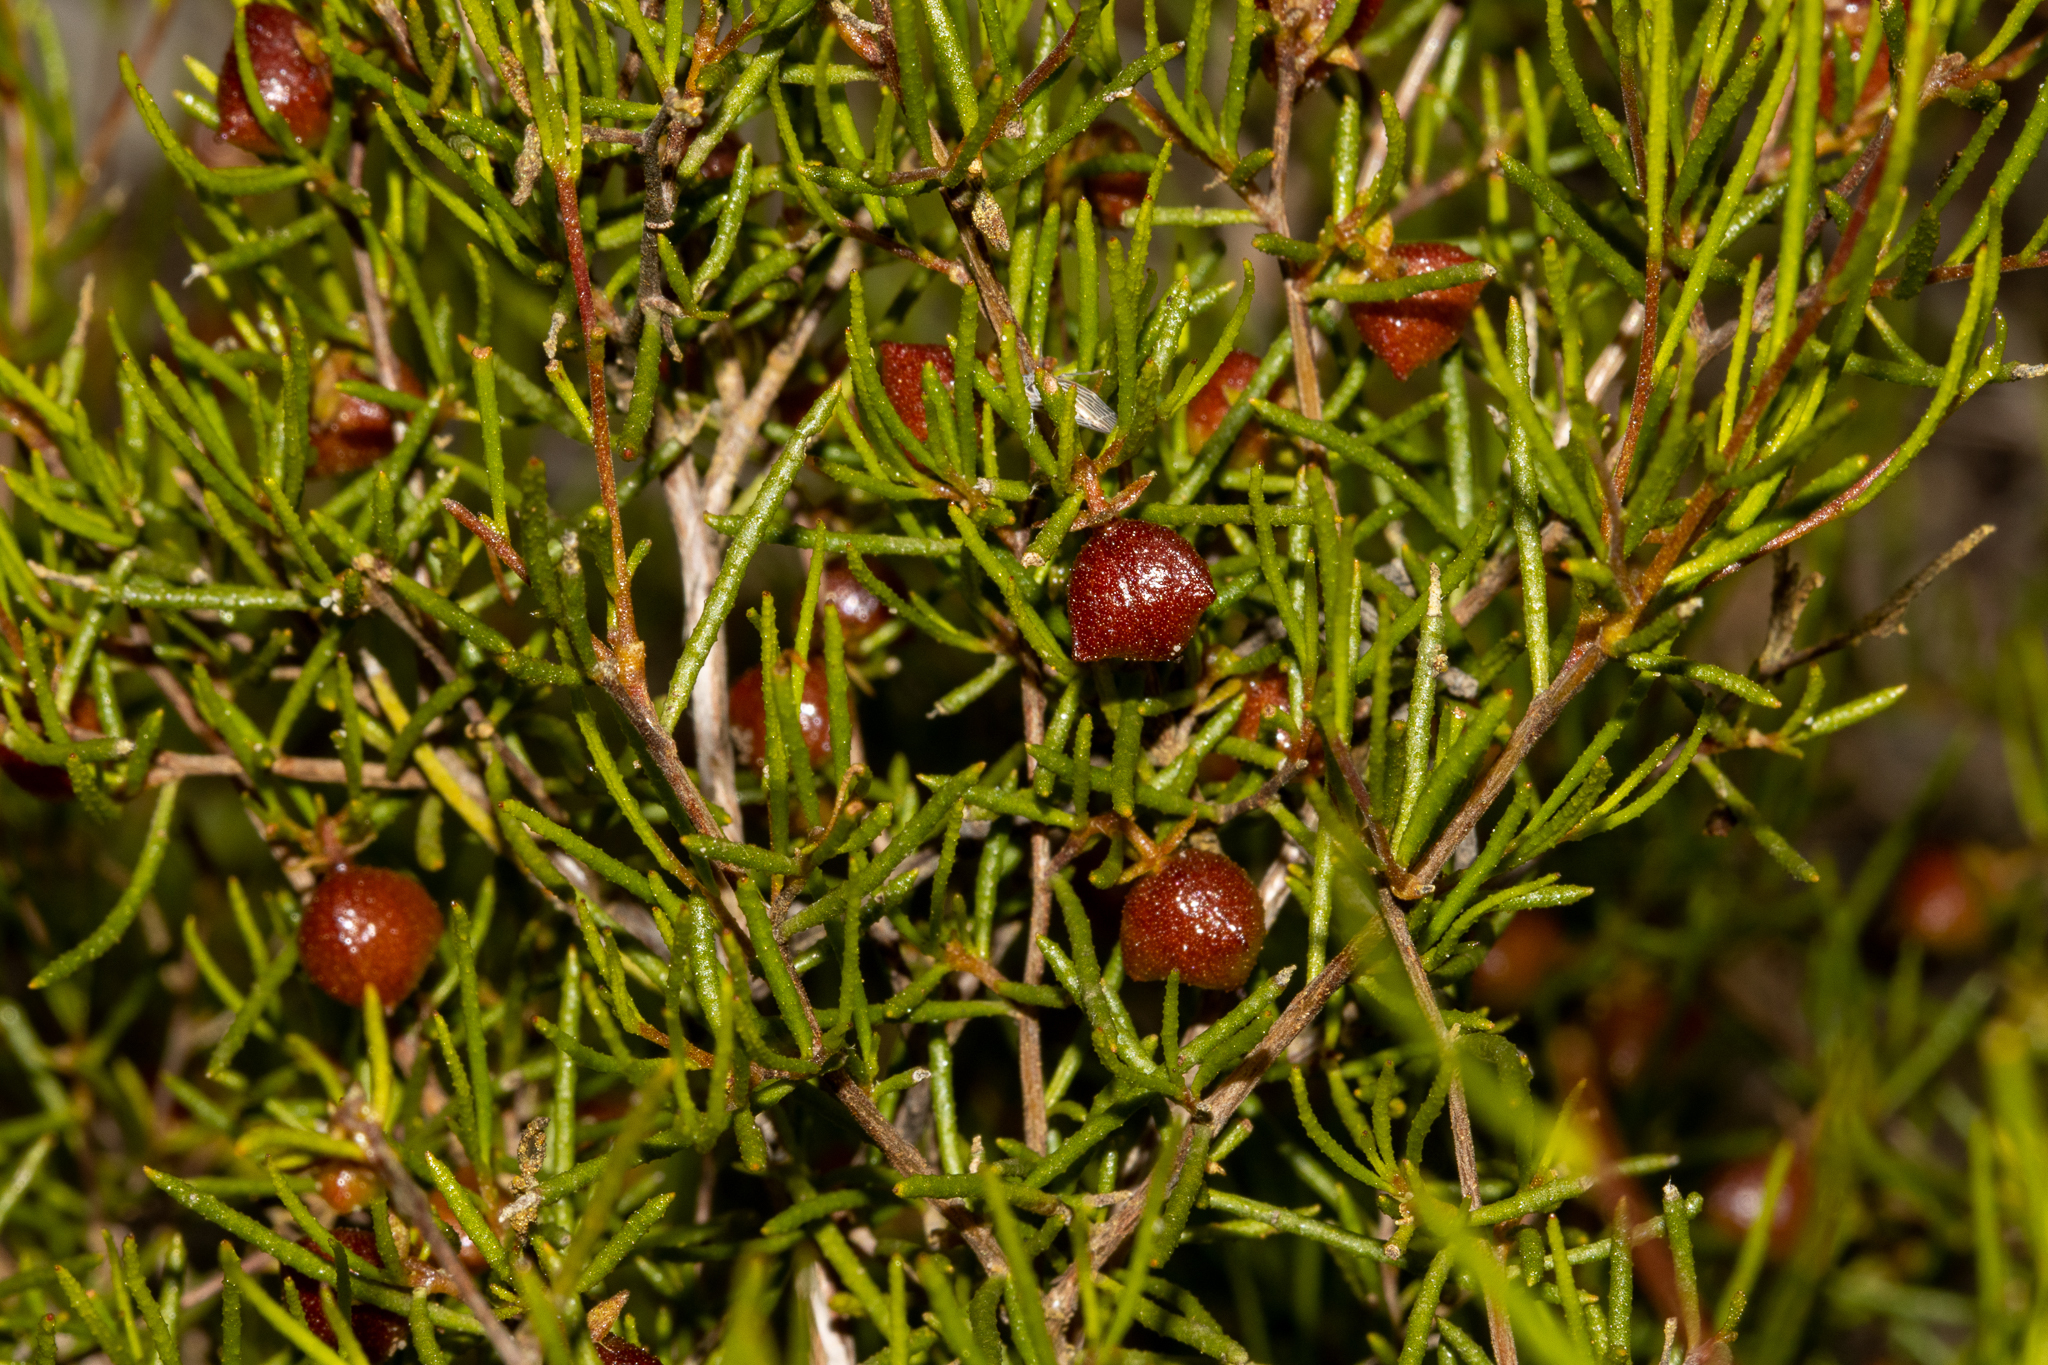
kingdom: Plantae
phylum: Tracheophyta
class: Magnoliopsida
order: Sapindales
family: Sapindaceae
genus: Dodonaea
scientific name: Dodonaea hexandra
